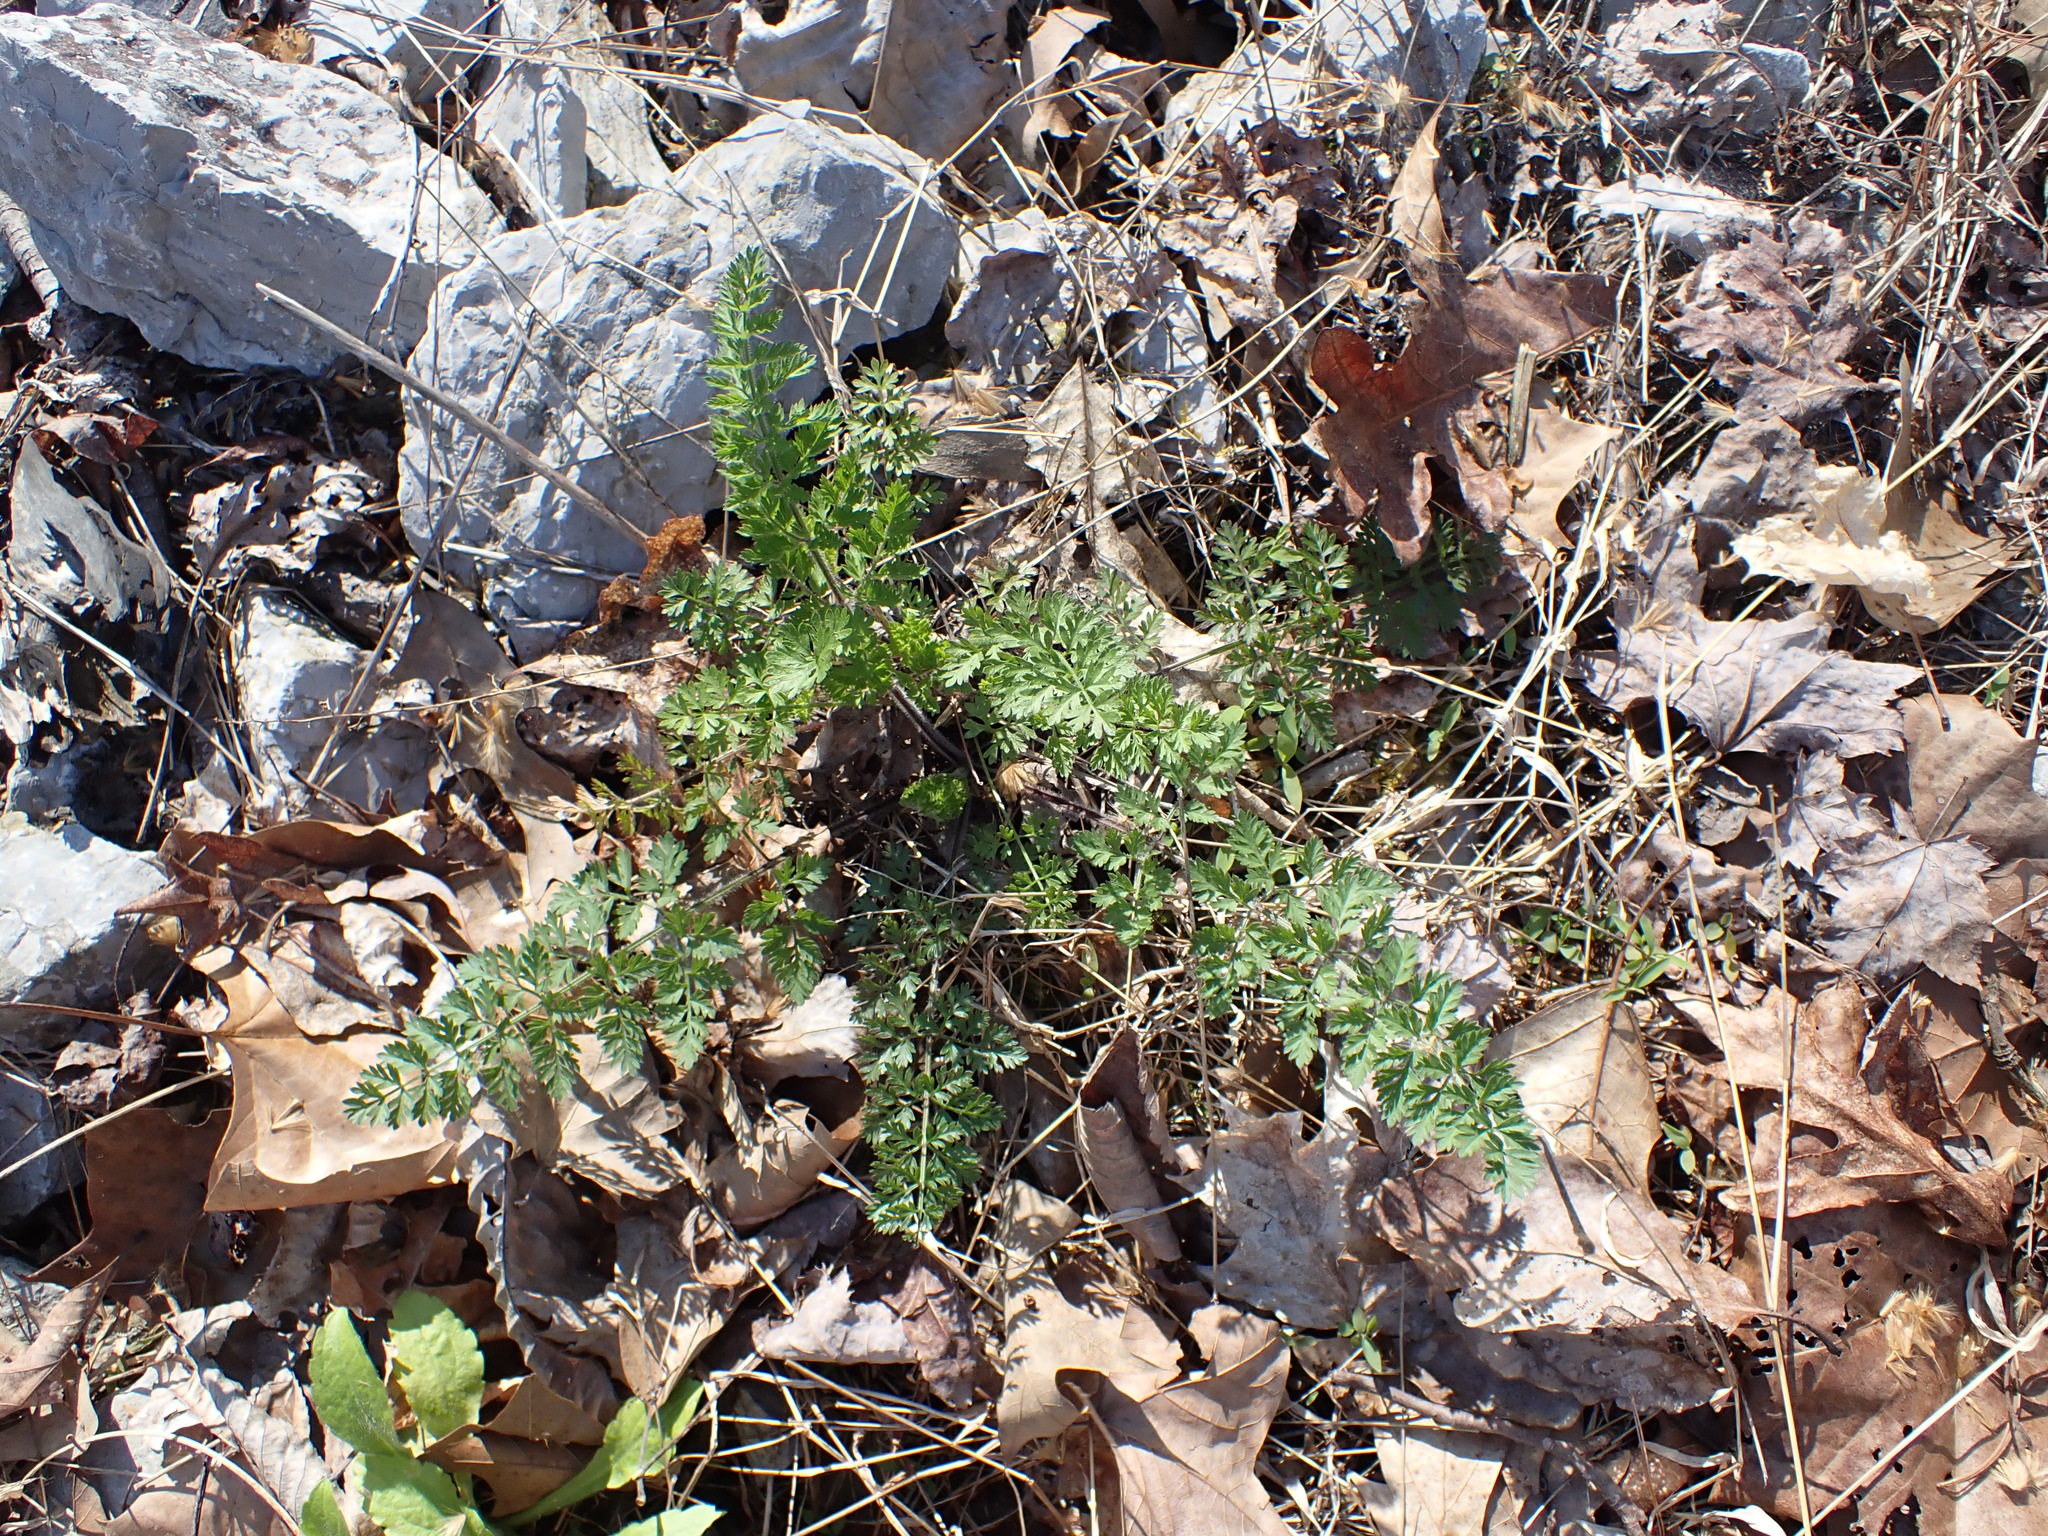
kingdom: Plantae
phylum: Tracheophyta
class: Magnoliopsida
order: Apiales
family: Apiaceae
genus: Daucus
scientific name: Daucus carota
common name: Wild carrot
